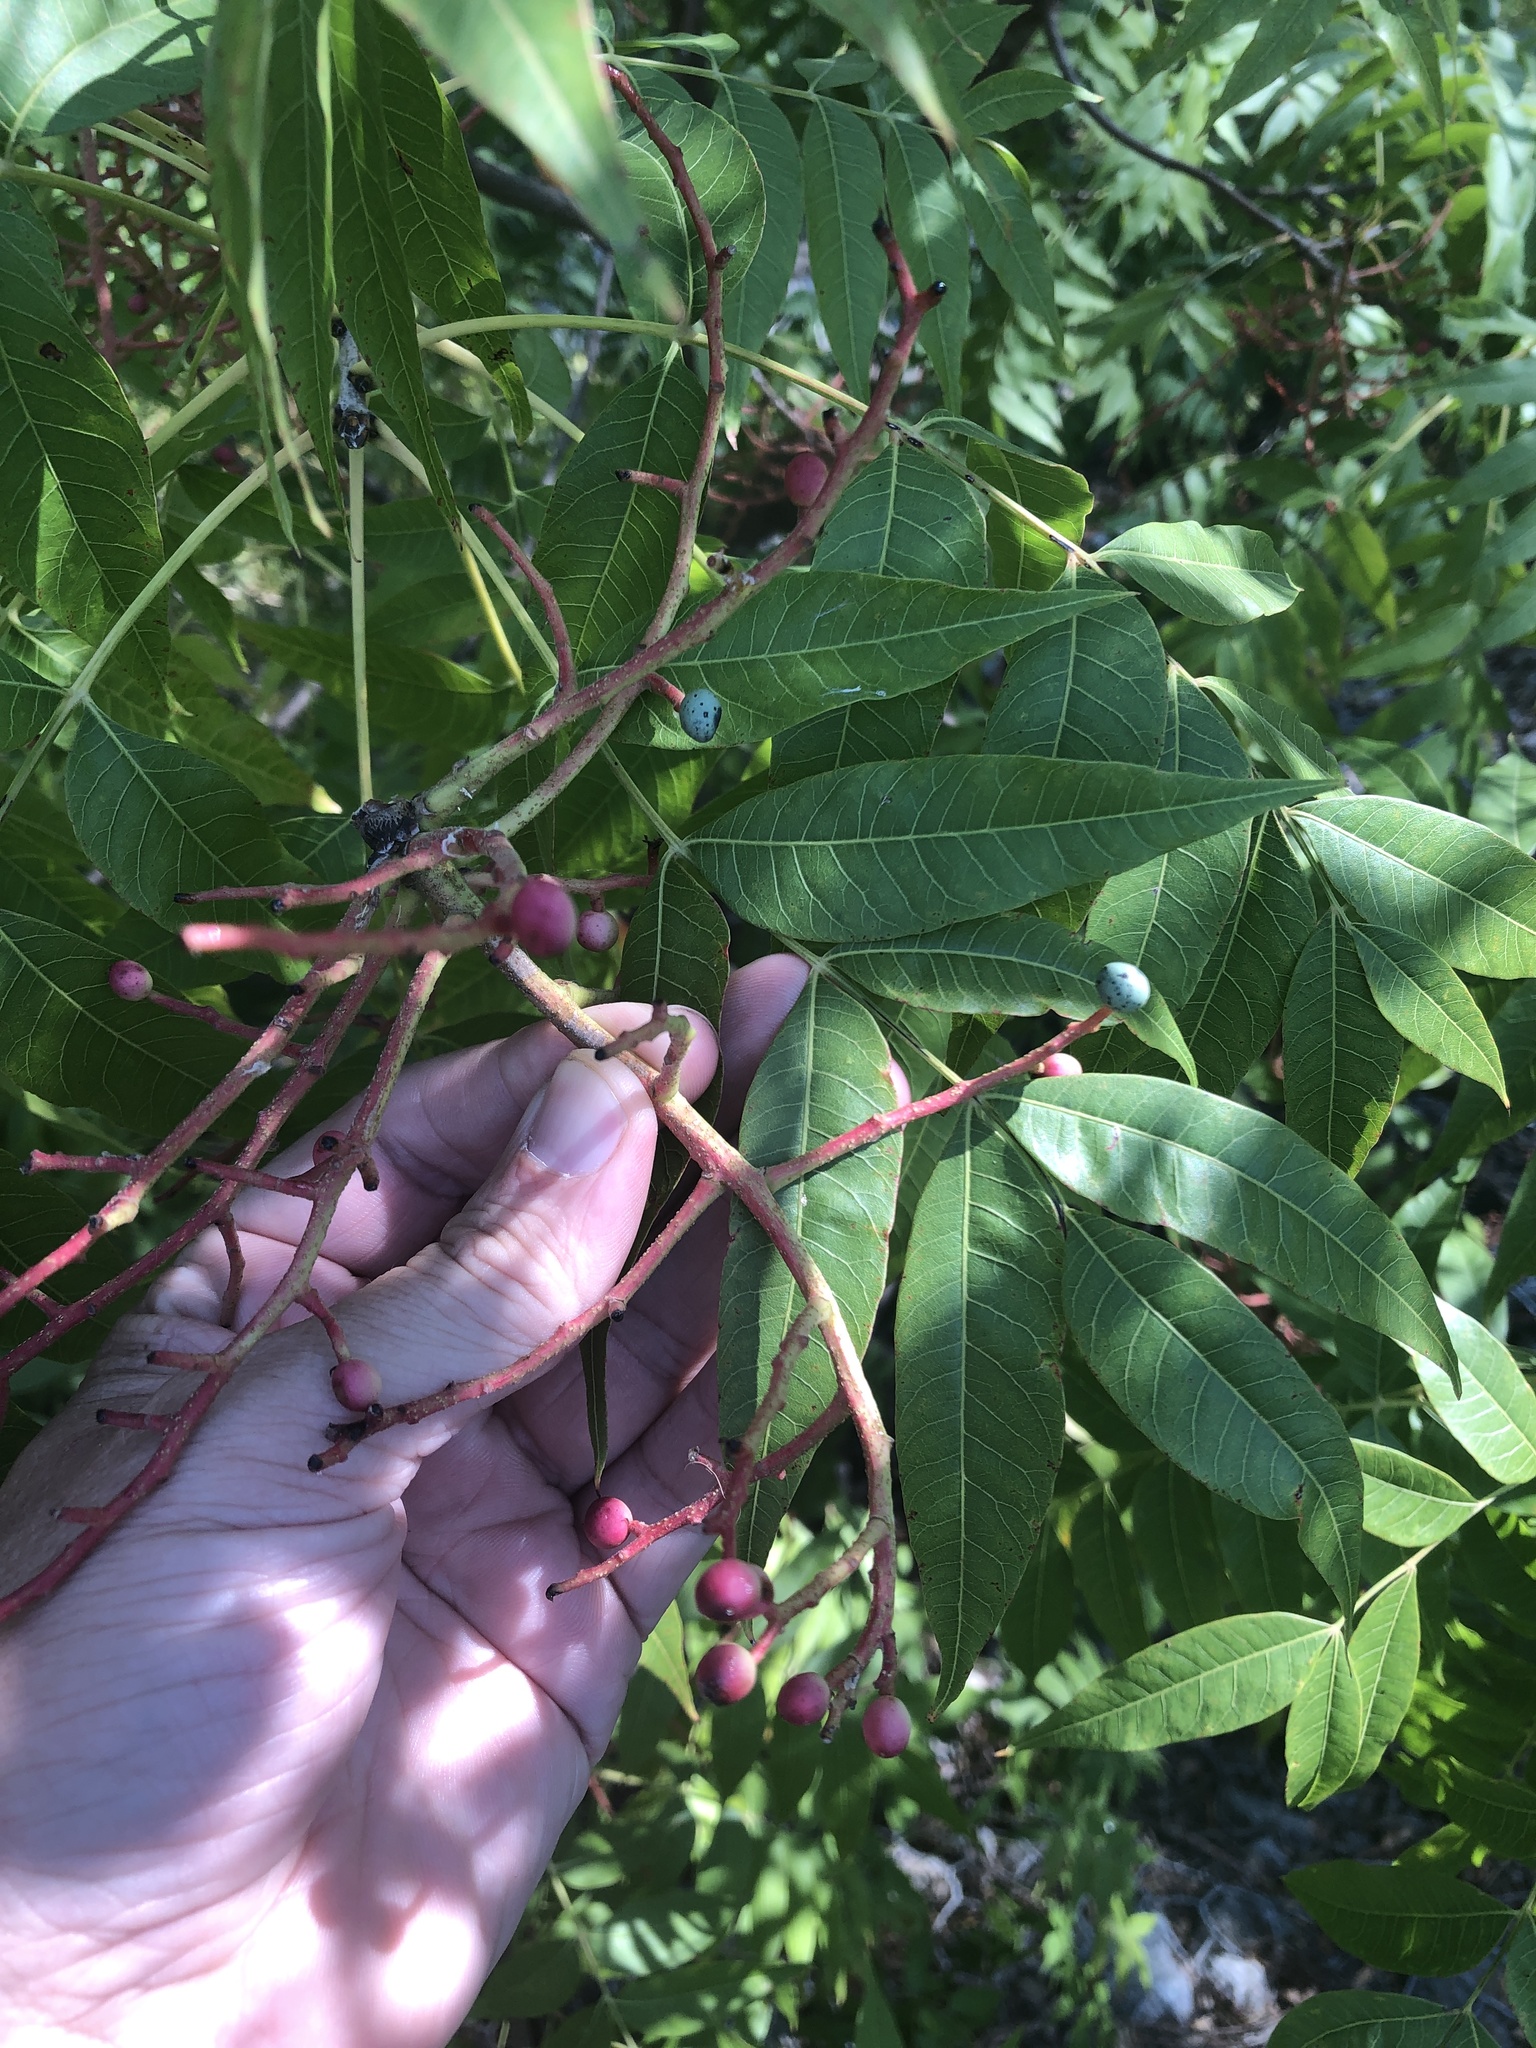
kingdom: Plantae
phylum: Tracheophyta
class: Magnoliopsida
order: Sapindales
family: Anacardiaceae
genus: Pistacia
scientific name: Pistacia chinensis
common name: Chinese pistache
